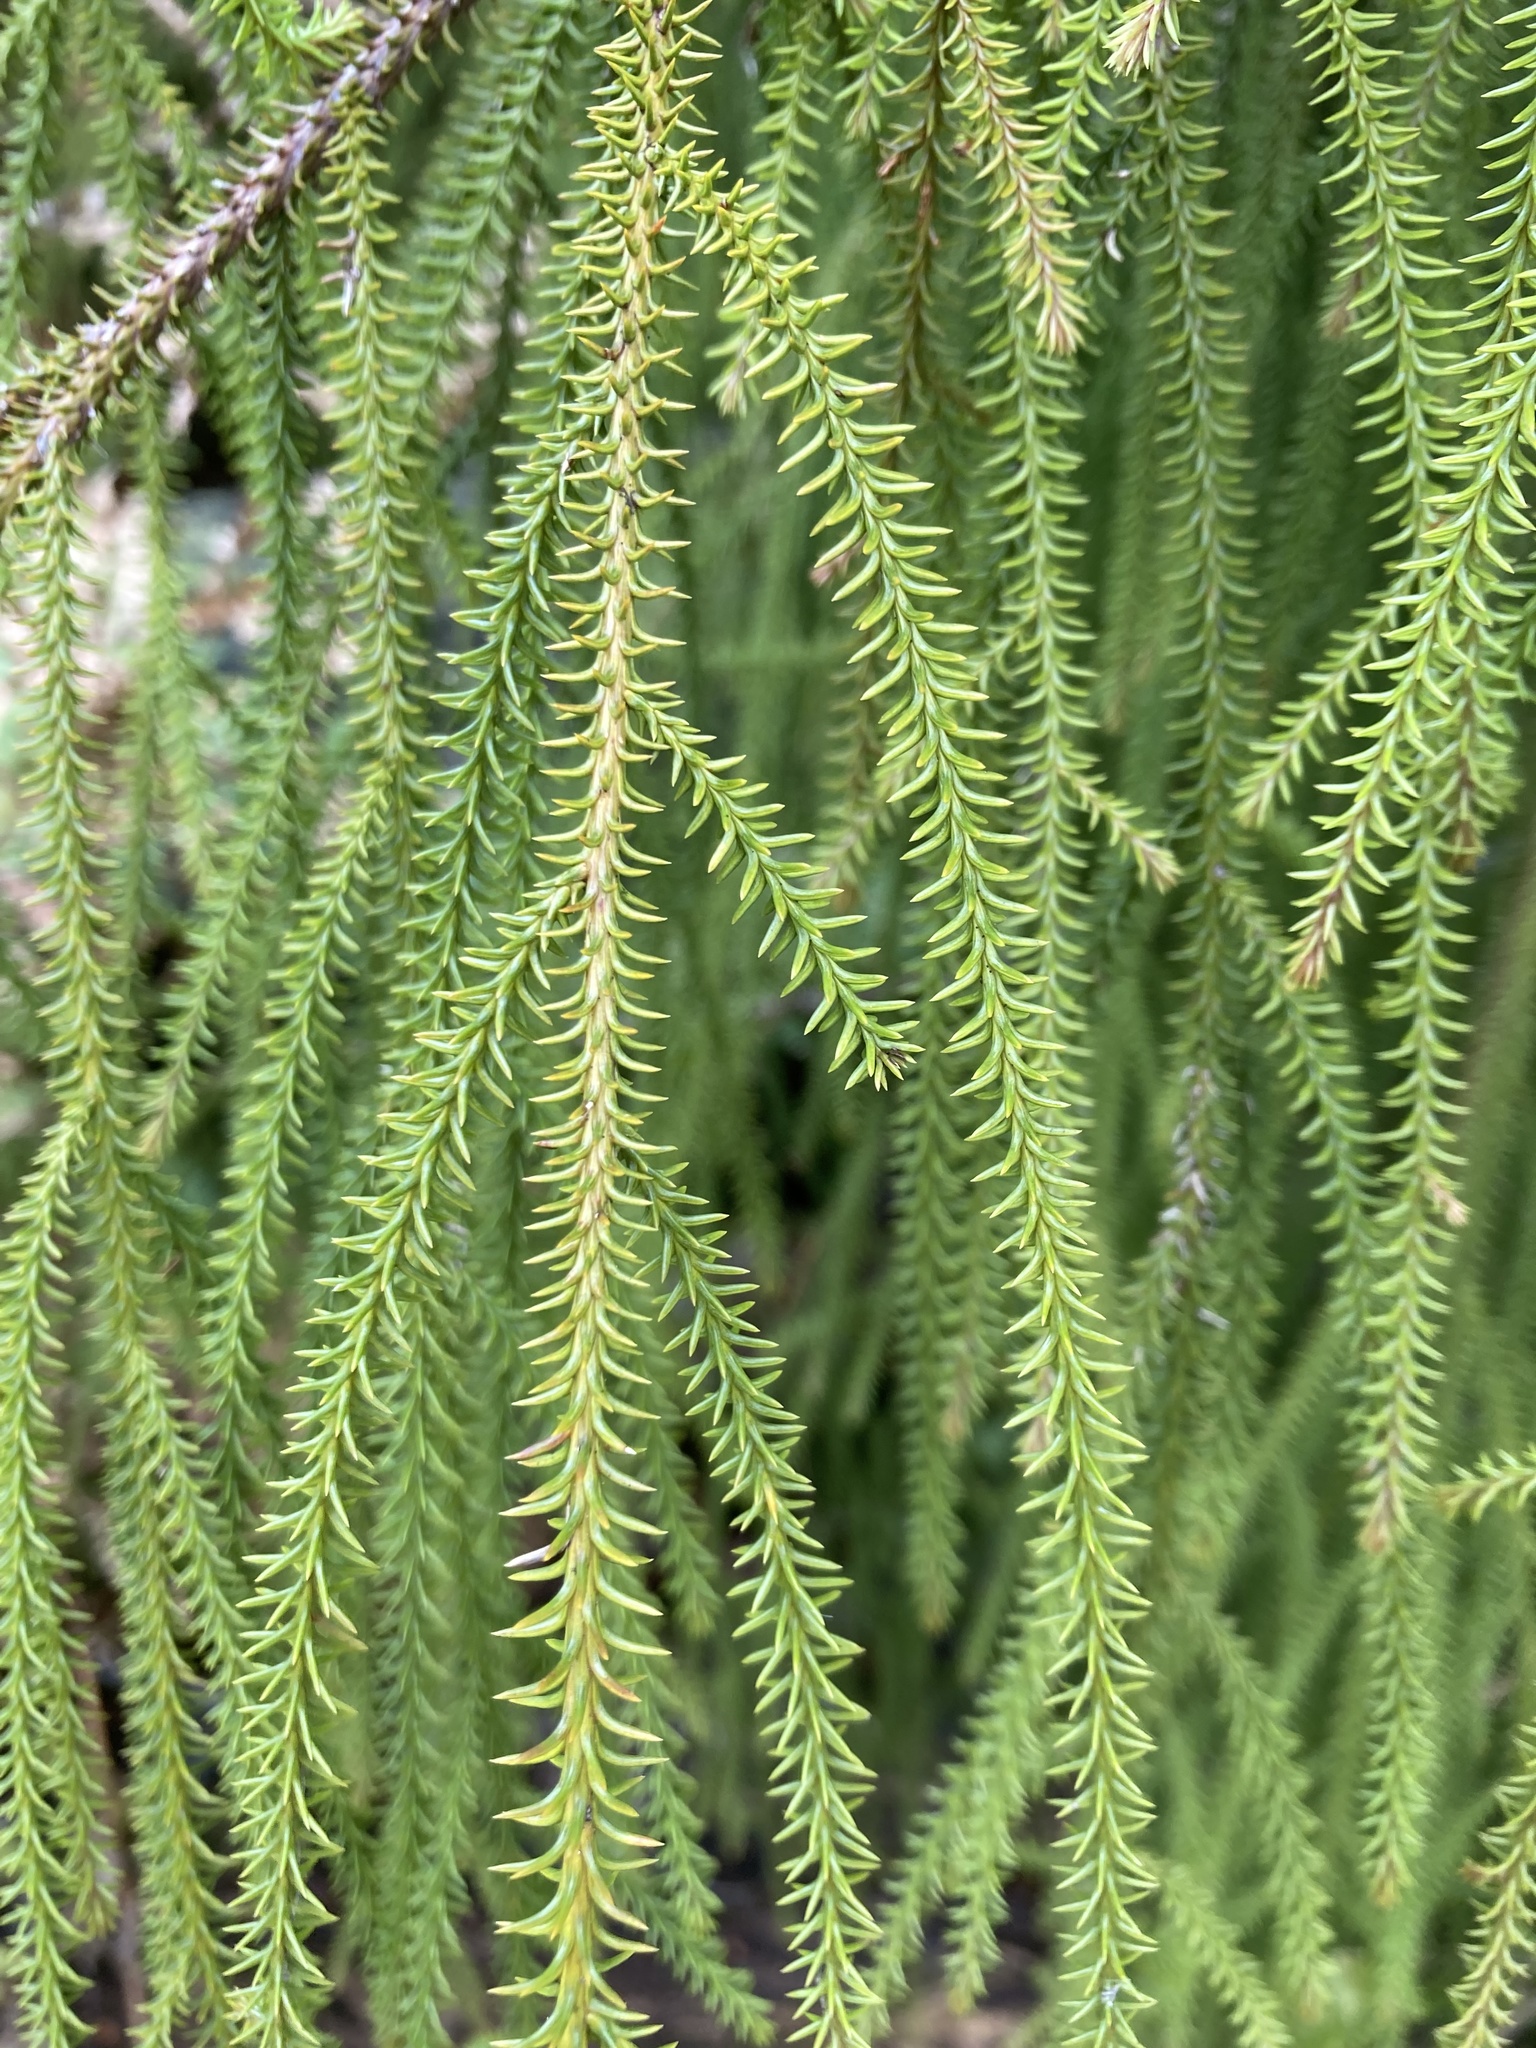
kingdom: Plantae
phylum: Tracheophyta
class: Pinopsida
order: Pinales
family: Podocarpaceae
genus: Dacrydium
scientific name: Dacrydium cupressinum
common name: Red pine
